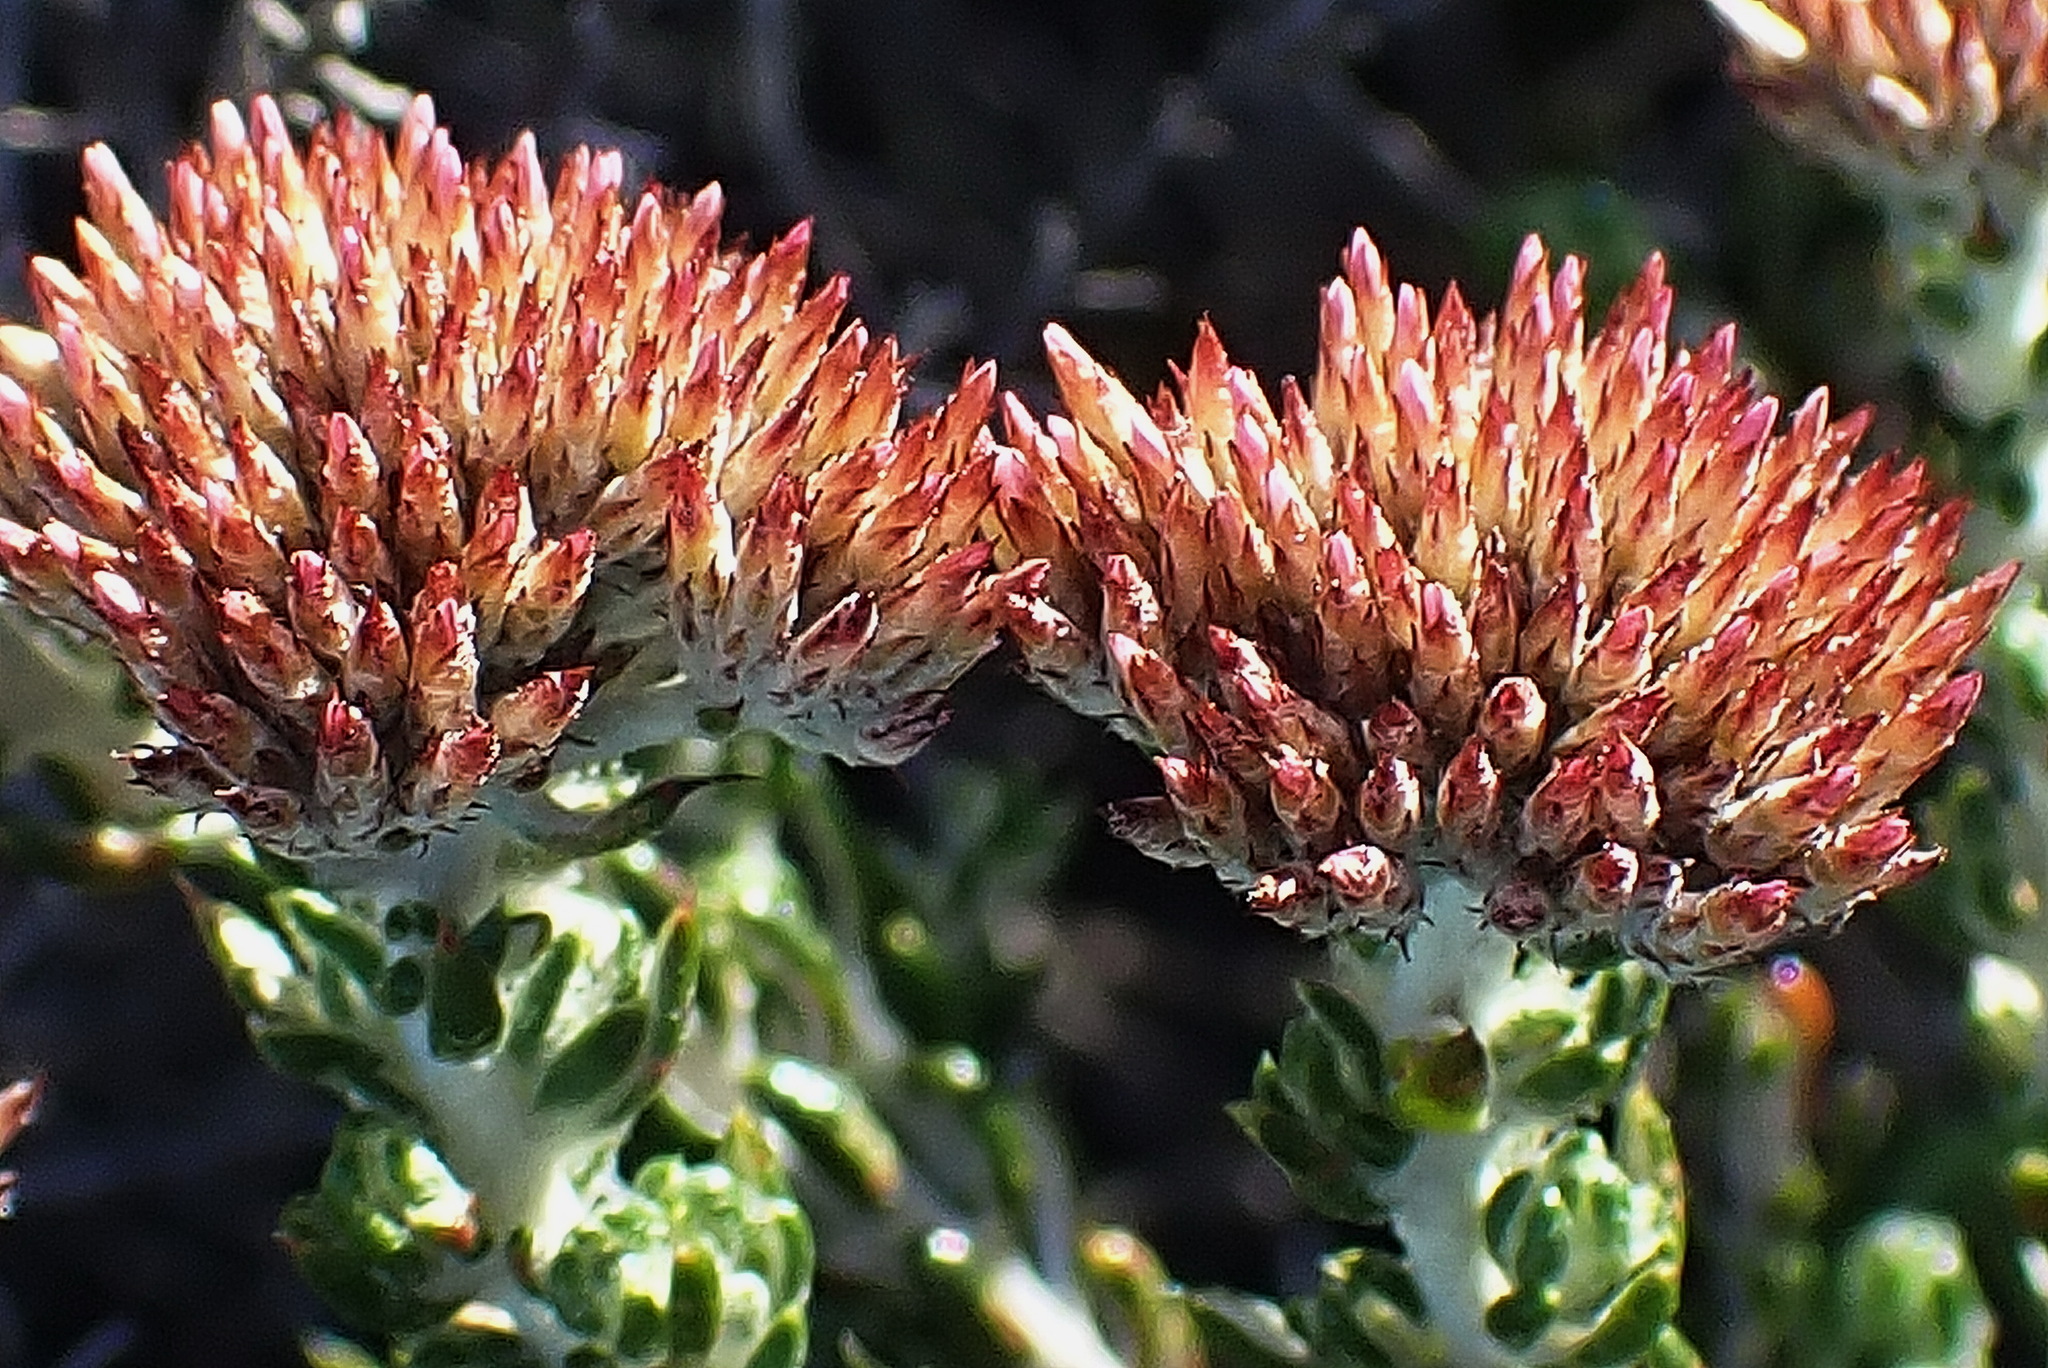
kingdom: Plantae
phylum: Tracheophyta
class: Magnoliopsida
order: Asterales
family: Asteraceae
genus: Metalasia
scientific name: Metalasia pungens
